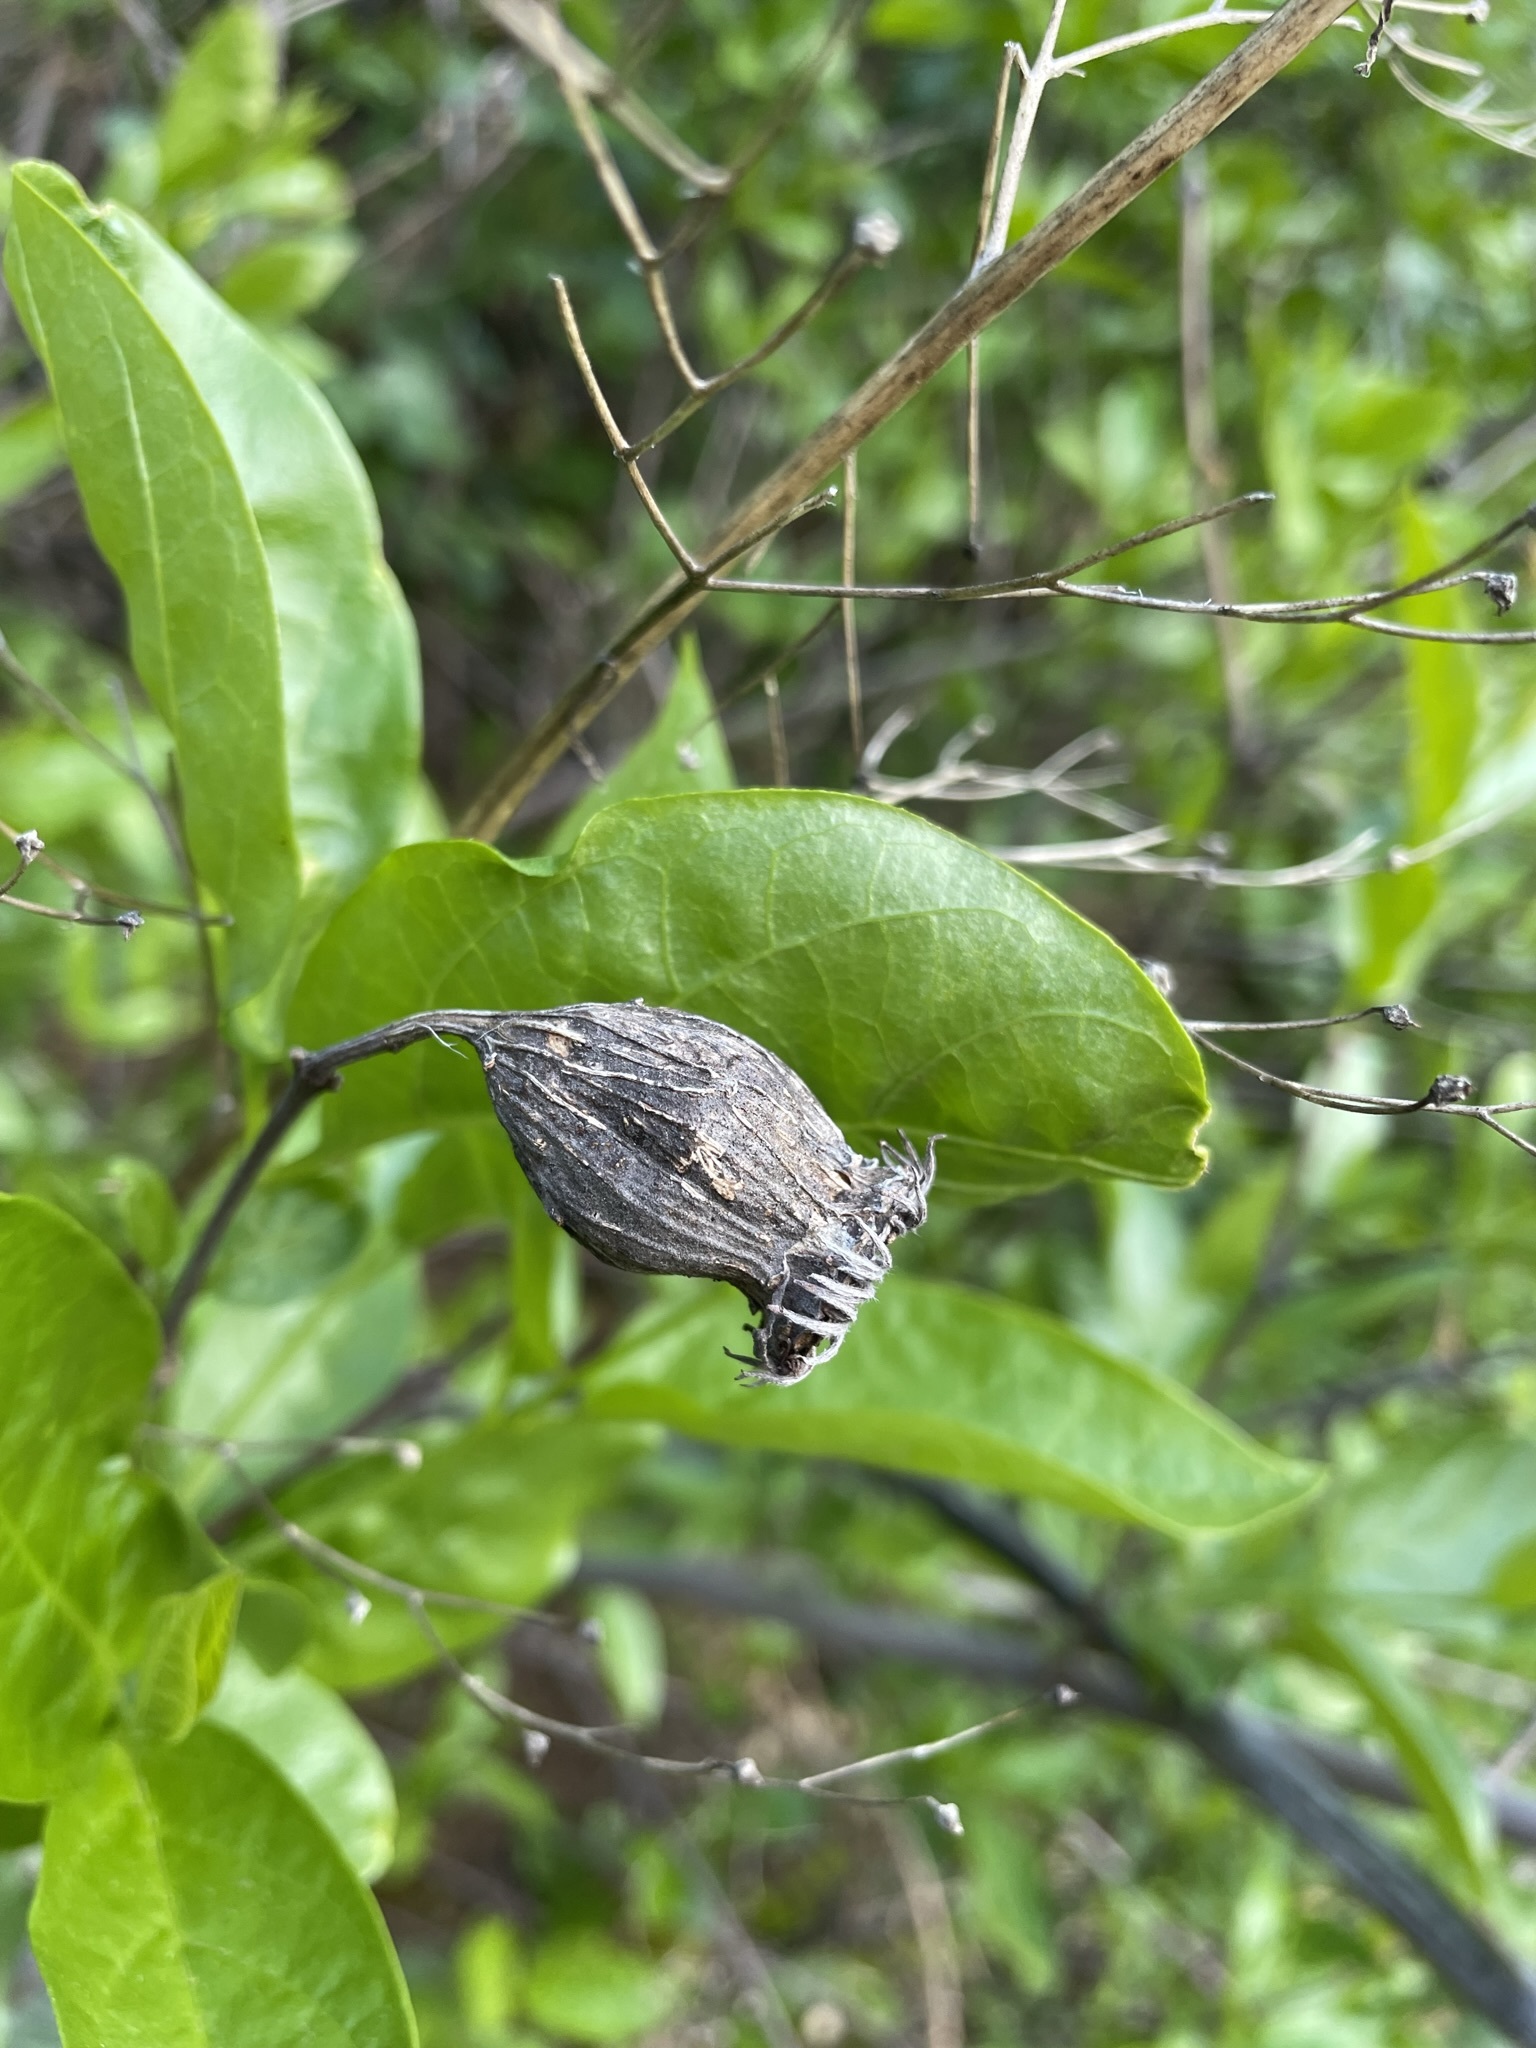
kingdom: Plantae
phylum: Tracheophyta
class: Magnoliopsida
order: Laurales
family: Calycanthaceae
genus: Calycanthus
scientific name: Calycanthus occidentalis
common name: California spicebush
